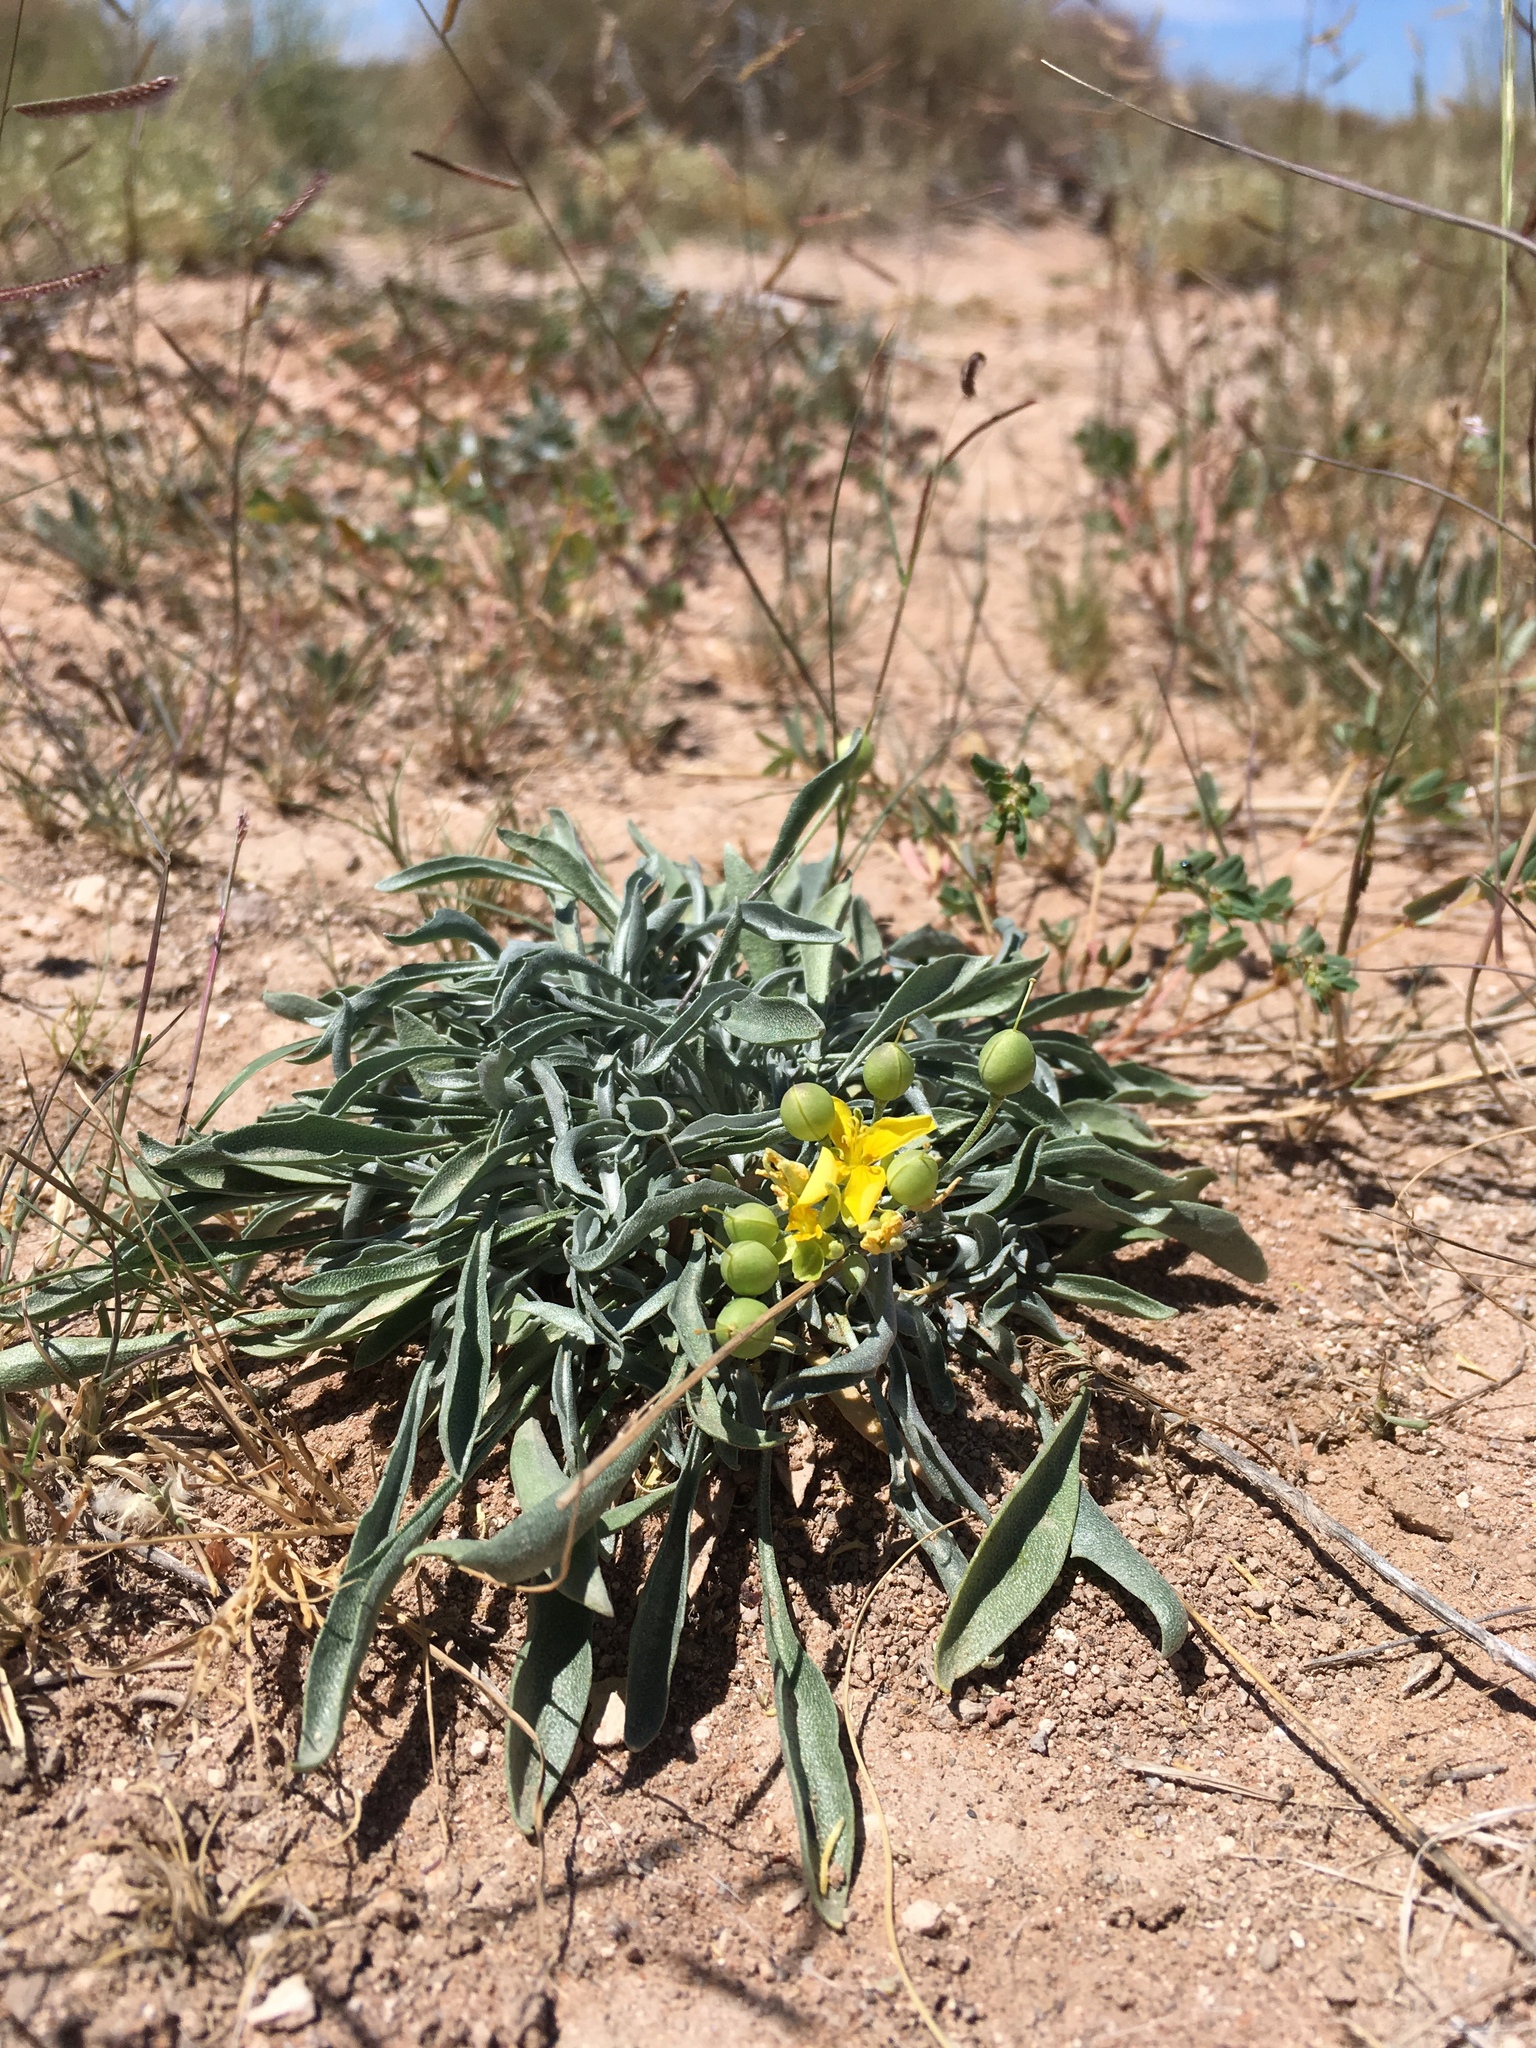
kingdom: Plantae
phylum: Tracheophyta
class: Magnoliopsida
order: Brassicales
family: Brassicaceae
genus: Physaria
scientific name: Physaria fendleri
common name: Fendler's bladderpod
